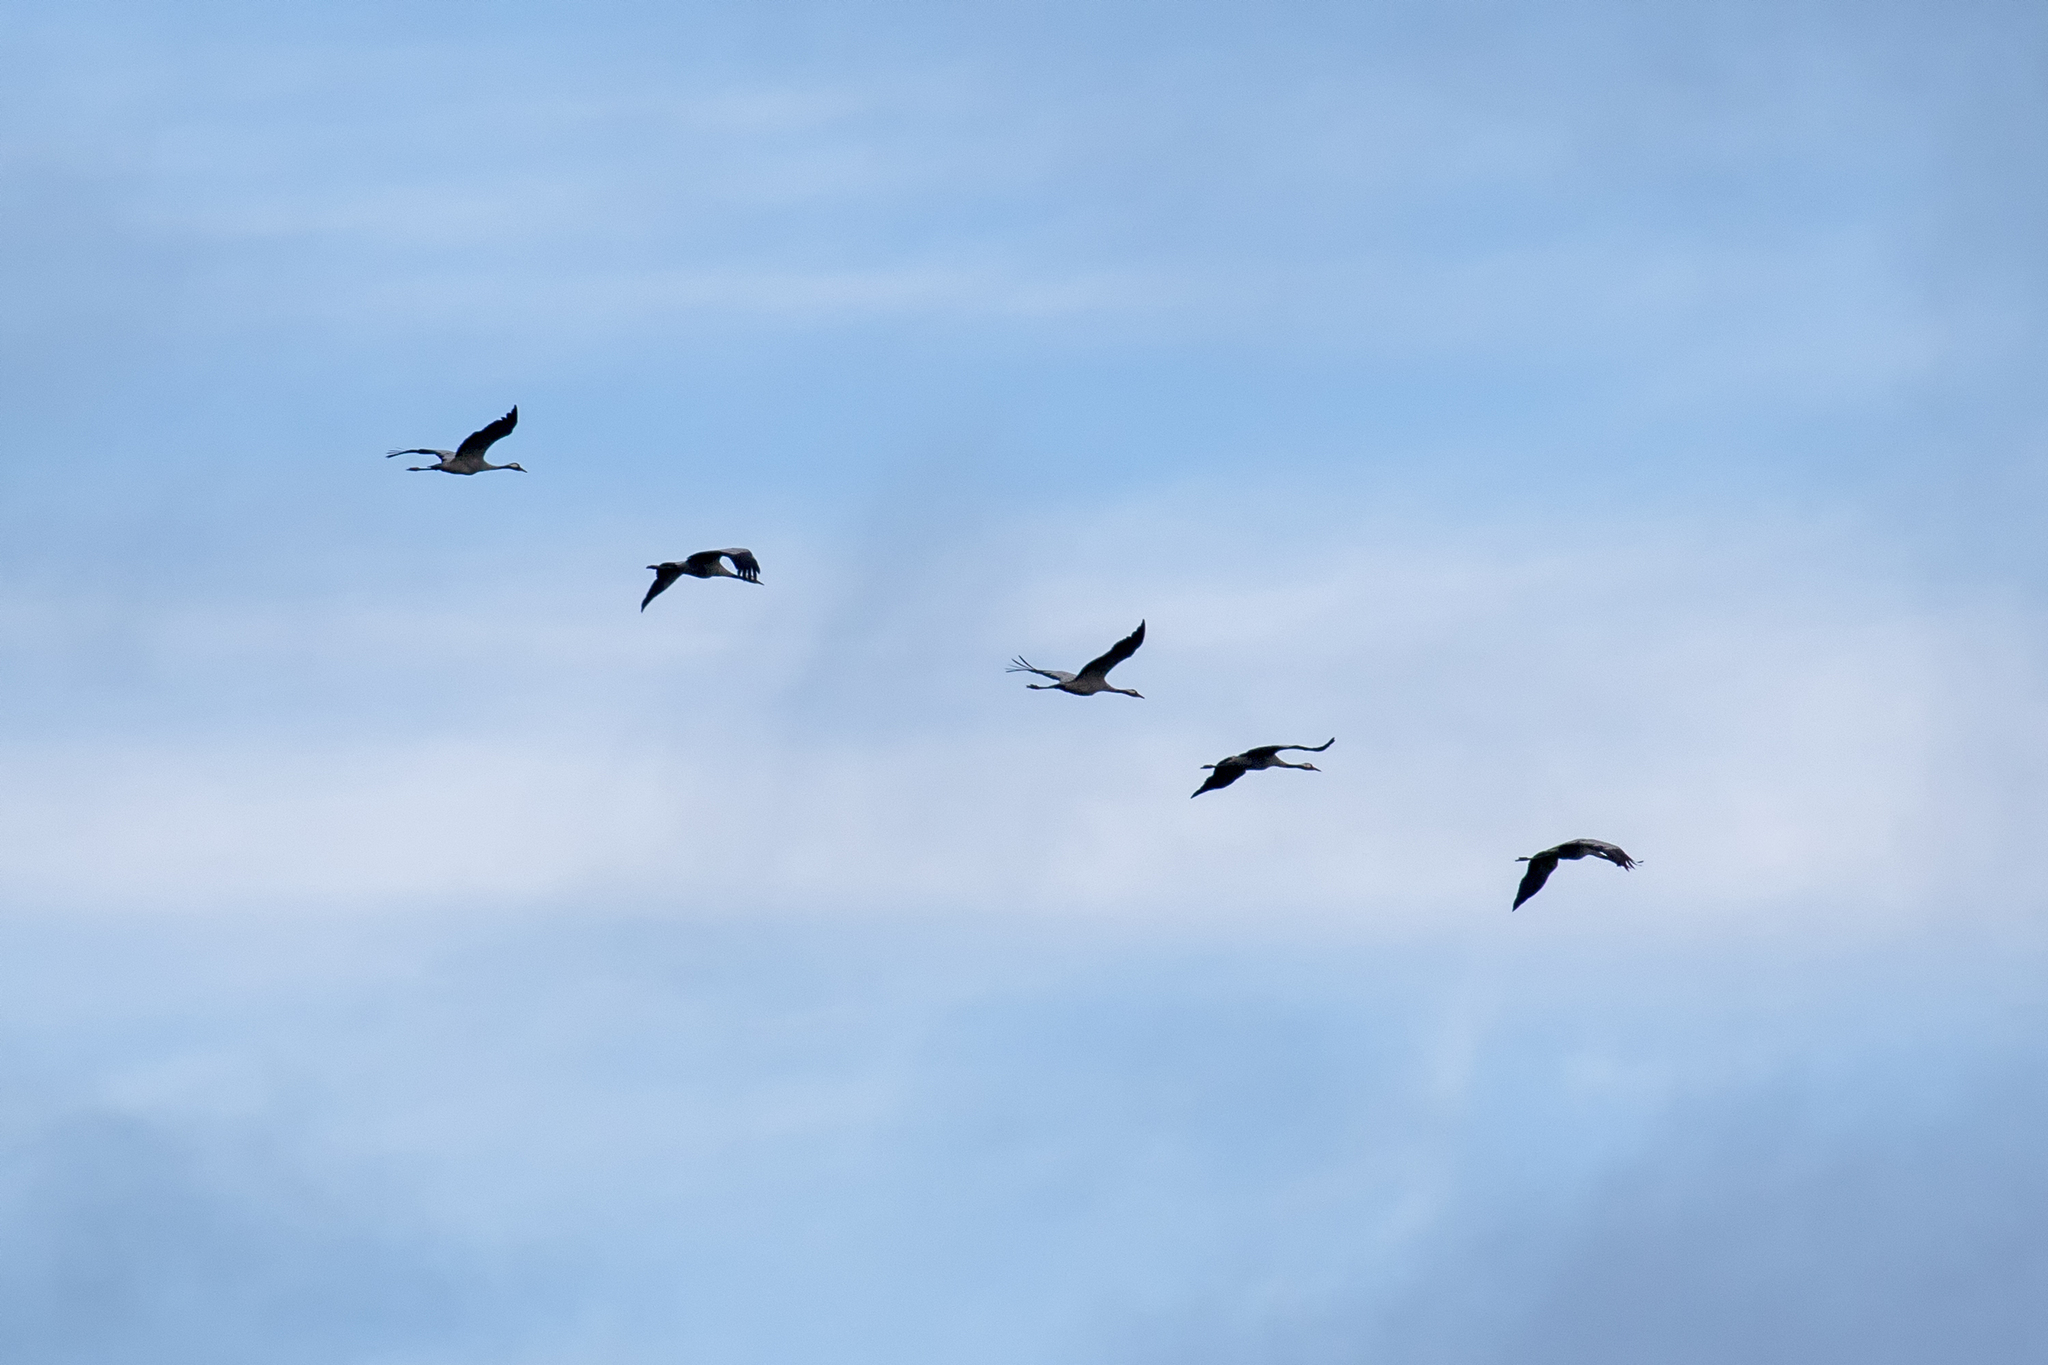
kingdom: Animalia
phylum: Chordata
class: Aves
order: Gruiformes
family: Gruidae
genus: Grus
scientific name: Grus grus
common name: Common crane
